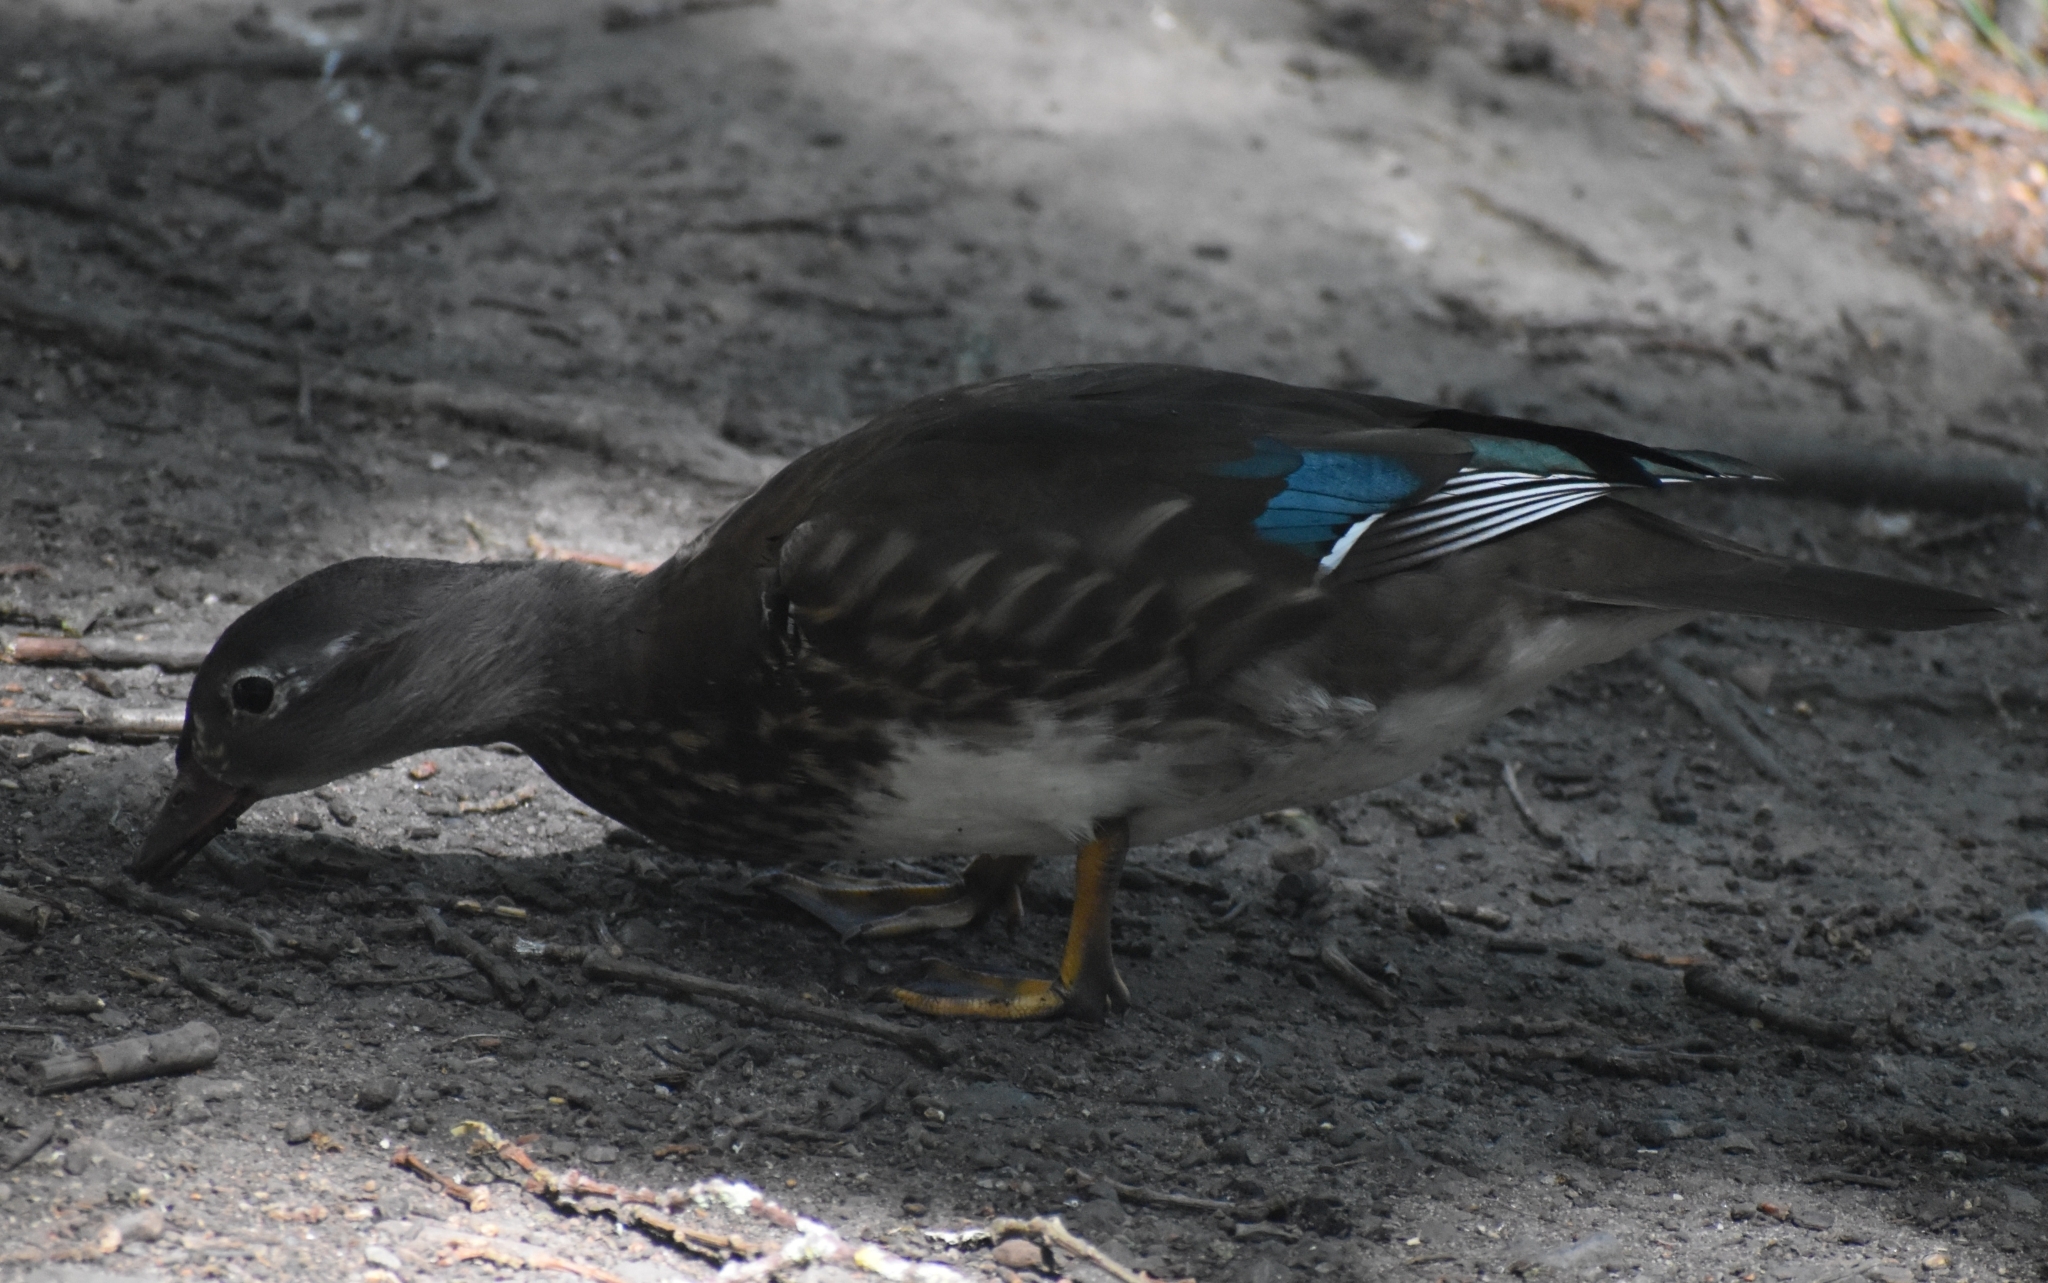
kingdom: Animalia
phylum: Chordata
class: Aves
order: Anseriformes
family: Anatidae
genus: Aix
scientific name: Aix galericulata
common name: Mandarin duck
